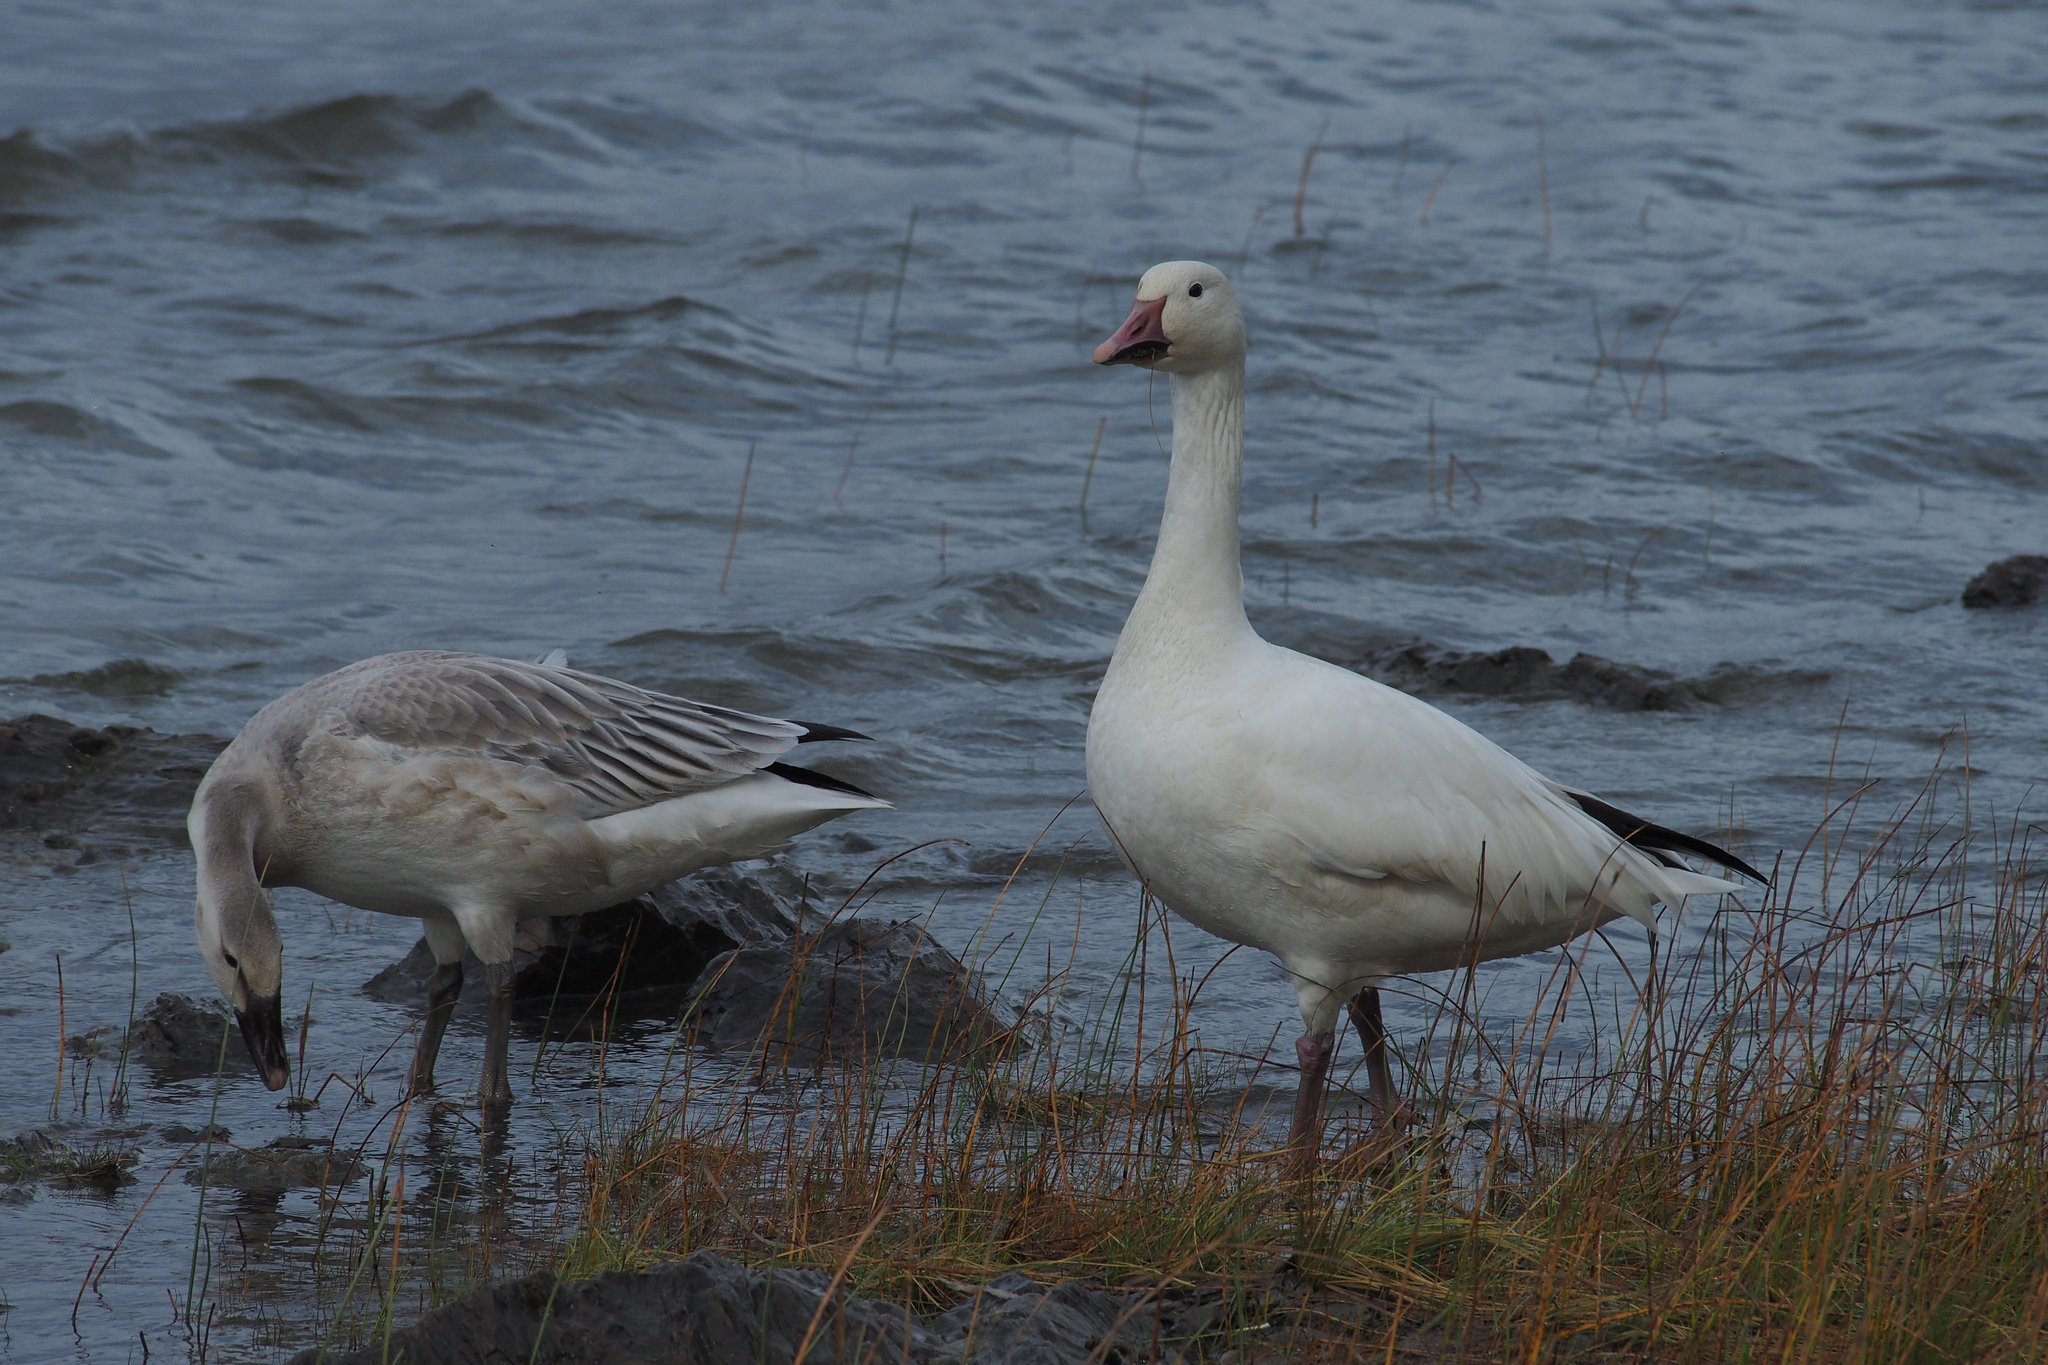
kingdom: Animalia
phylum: Chordata
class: Aves
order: Anseriformes
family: Anatidae
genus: Anser
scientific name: Anser caerulescens
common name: Snow goose
